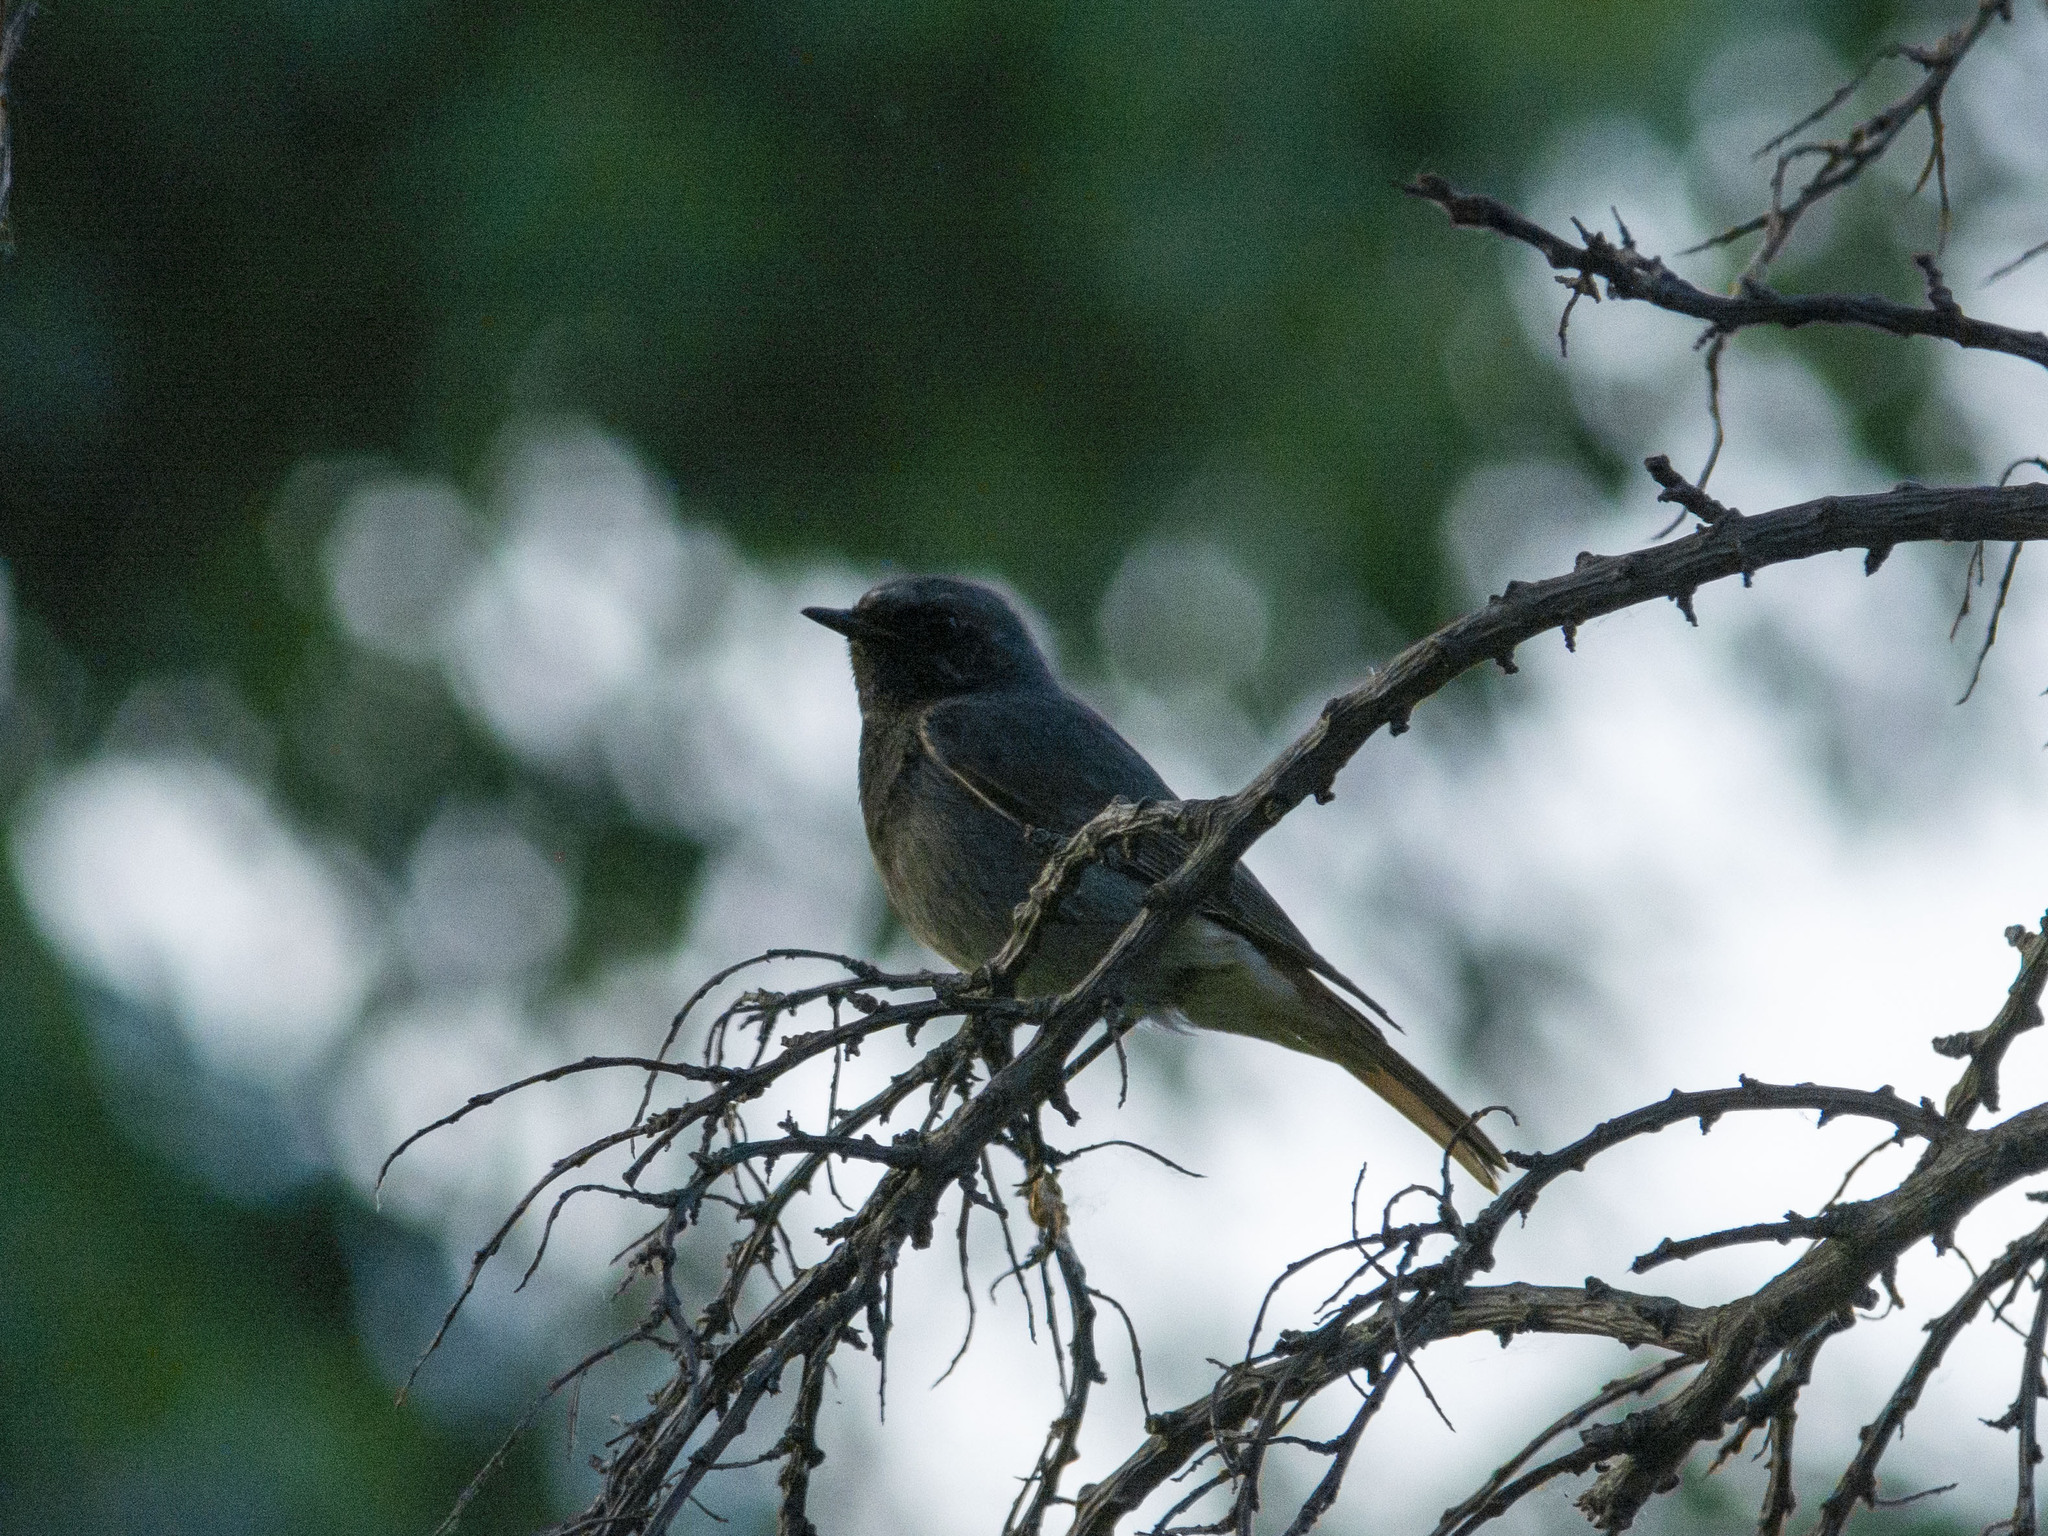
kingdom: Animalia
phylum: Chordata
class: Aves
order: Passeriformes
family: Muscicapidae
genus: Phoenicurus
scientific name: Phoenicurus ochruros
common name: Black redstart
